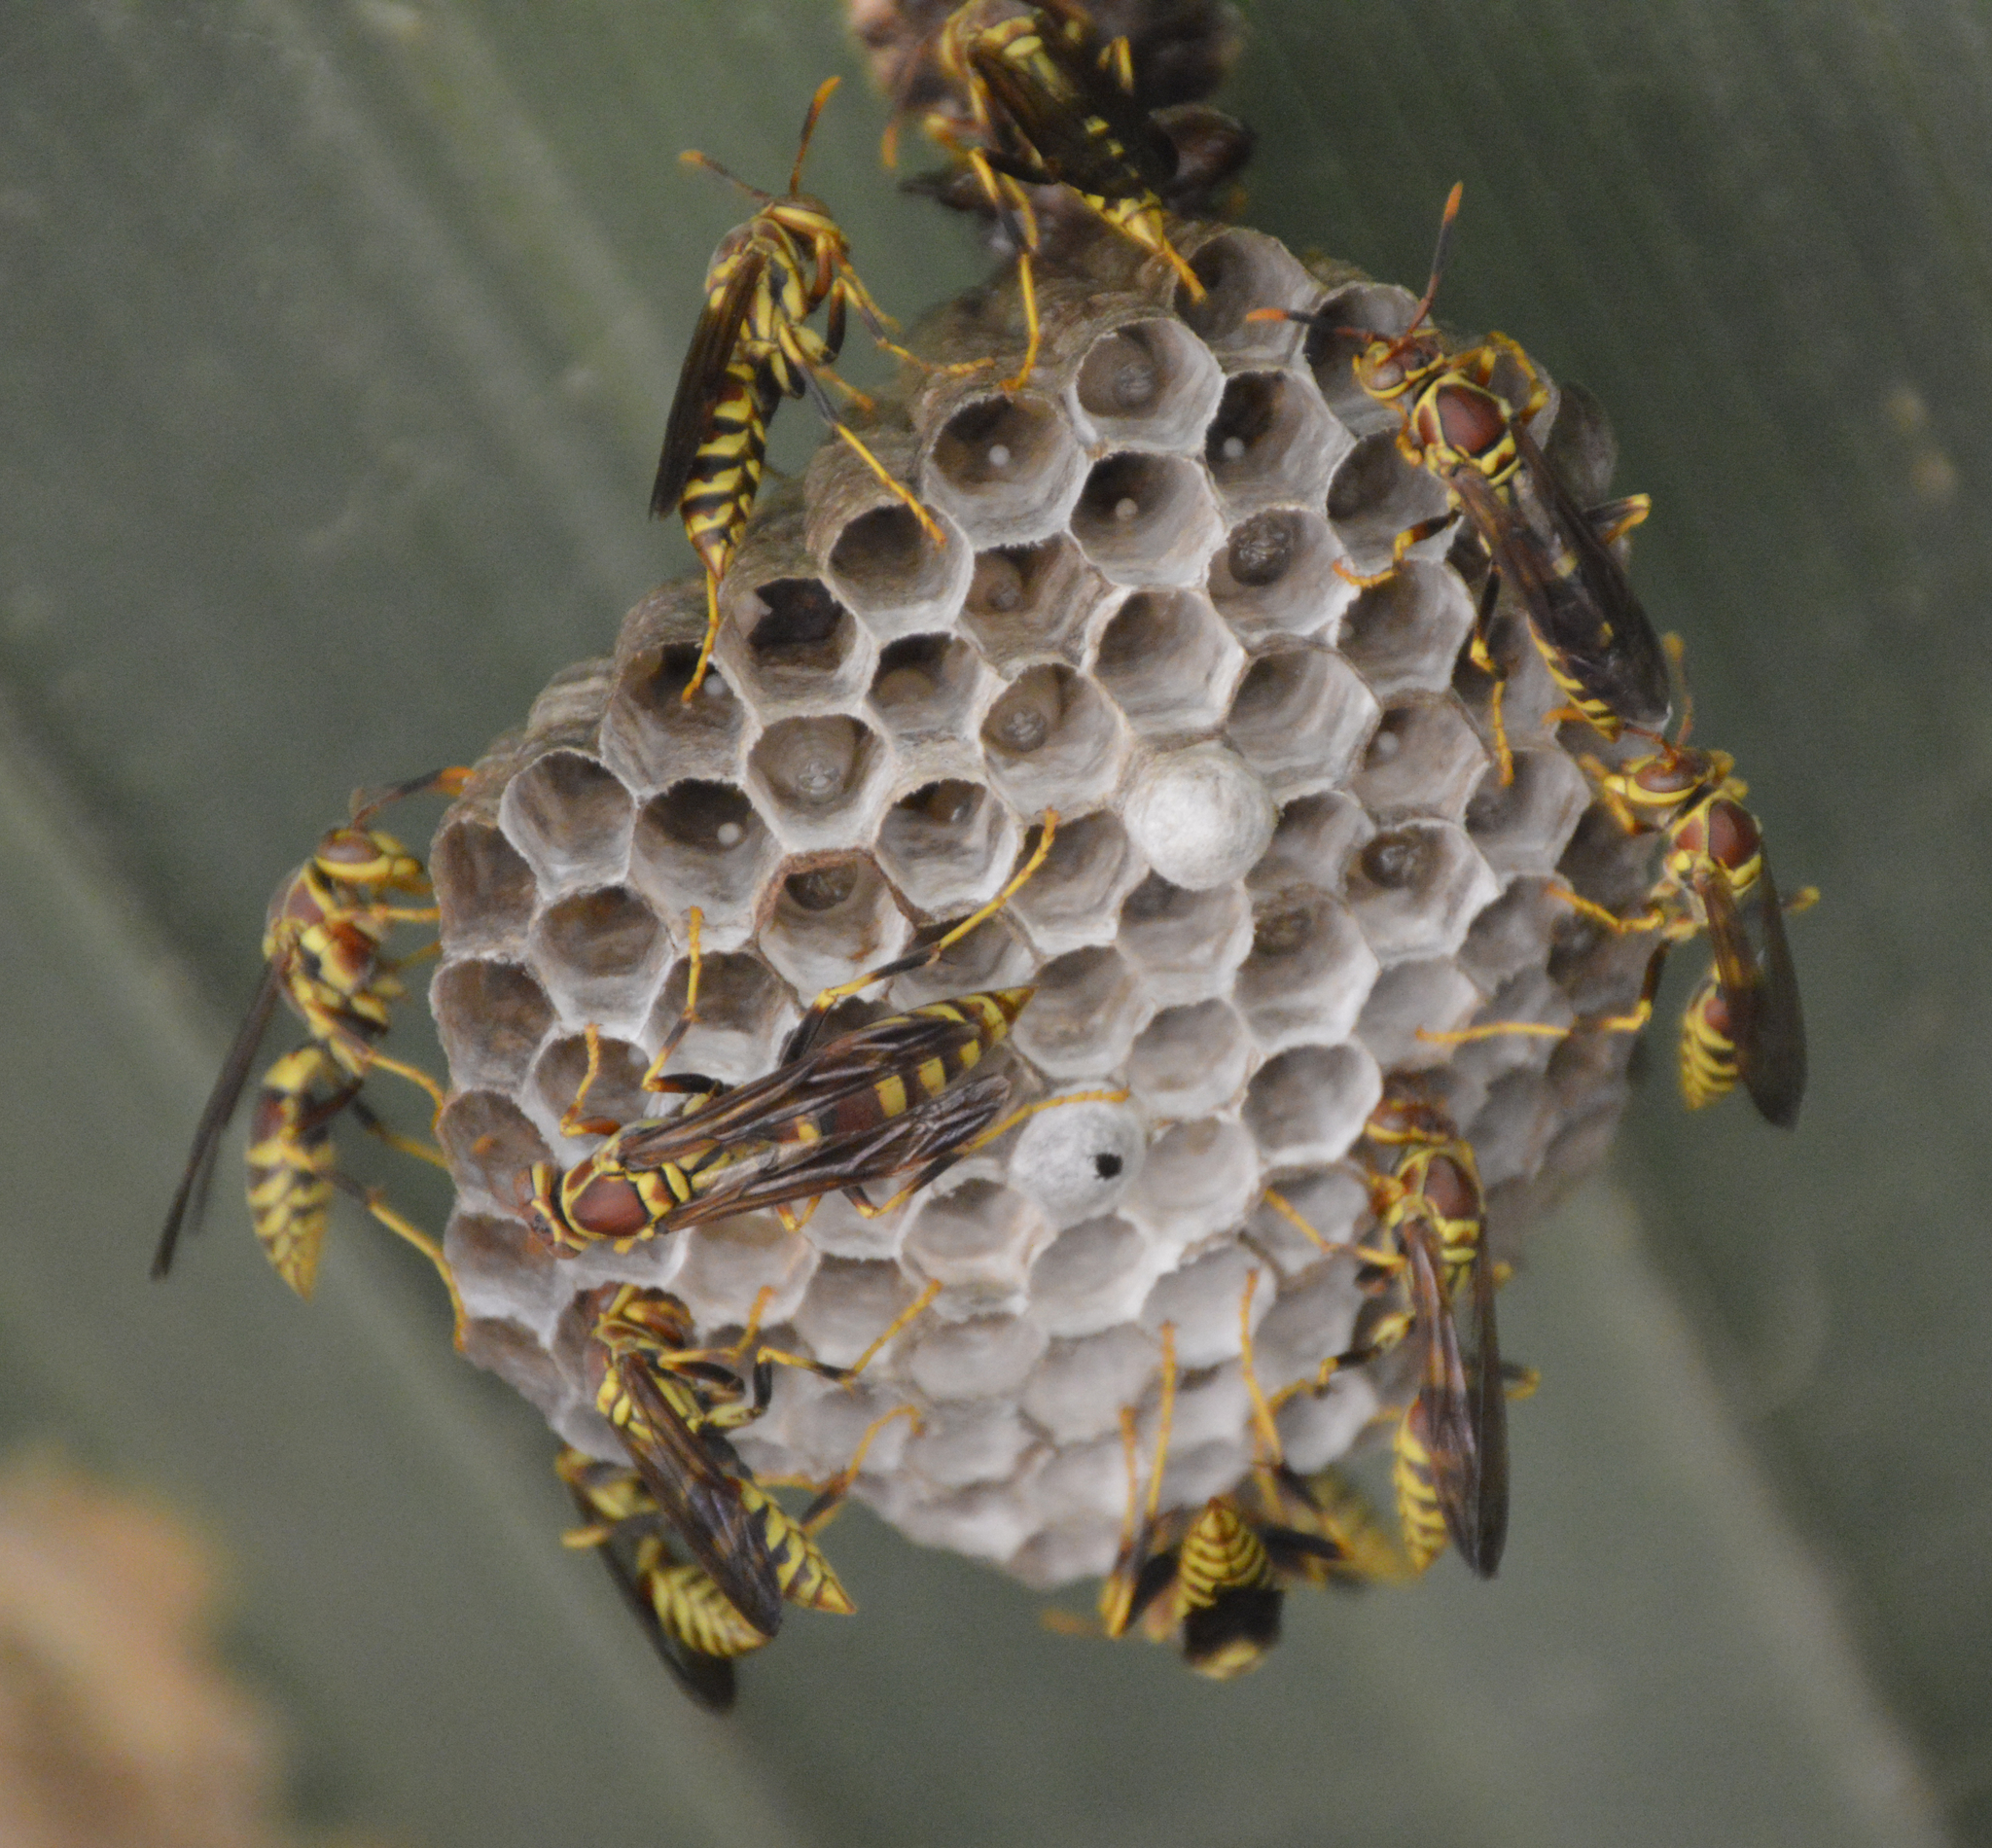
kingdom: Animalia
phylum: Arthropoda
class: Insecta
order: Hymenoptera
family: Eumenidae
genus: Polistes
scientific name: Polistes exclamans
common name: Paper wasp
